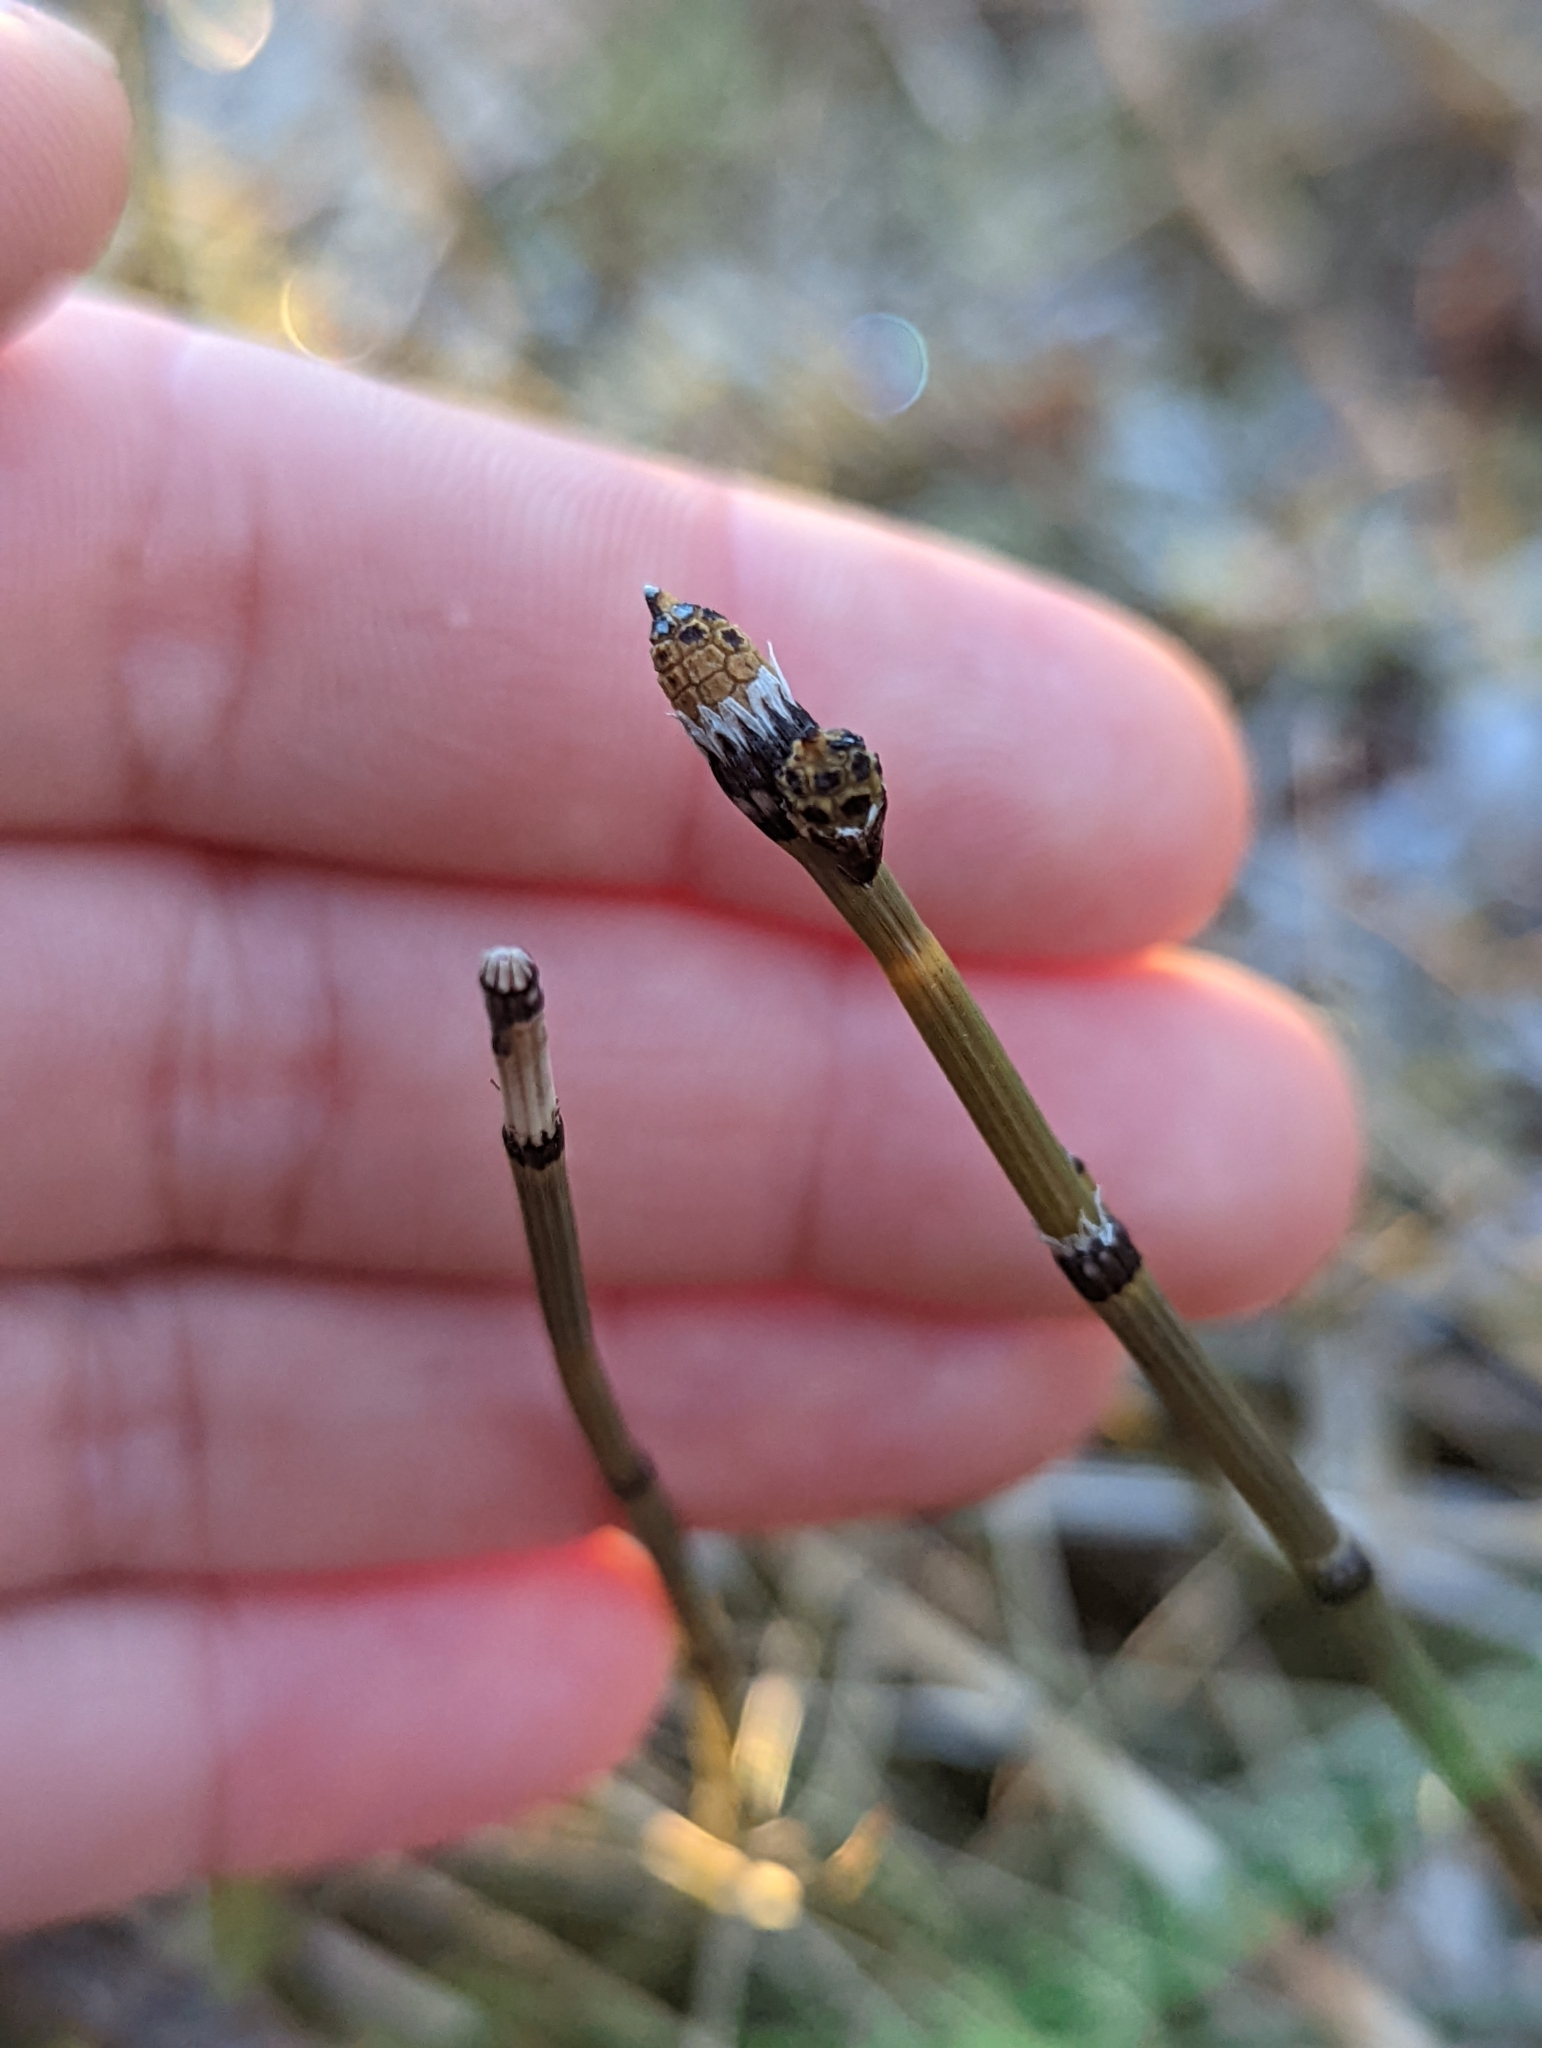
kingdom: Plantae
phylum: Tracheophyta
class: Polypodiopsida
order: Equisetales
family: Equisetaceae
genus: Equisetum
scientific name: Equisetum variegatum
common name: Variegated horsetail
